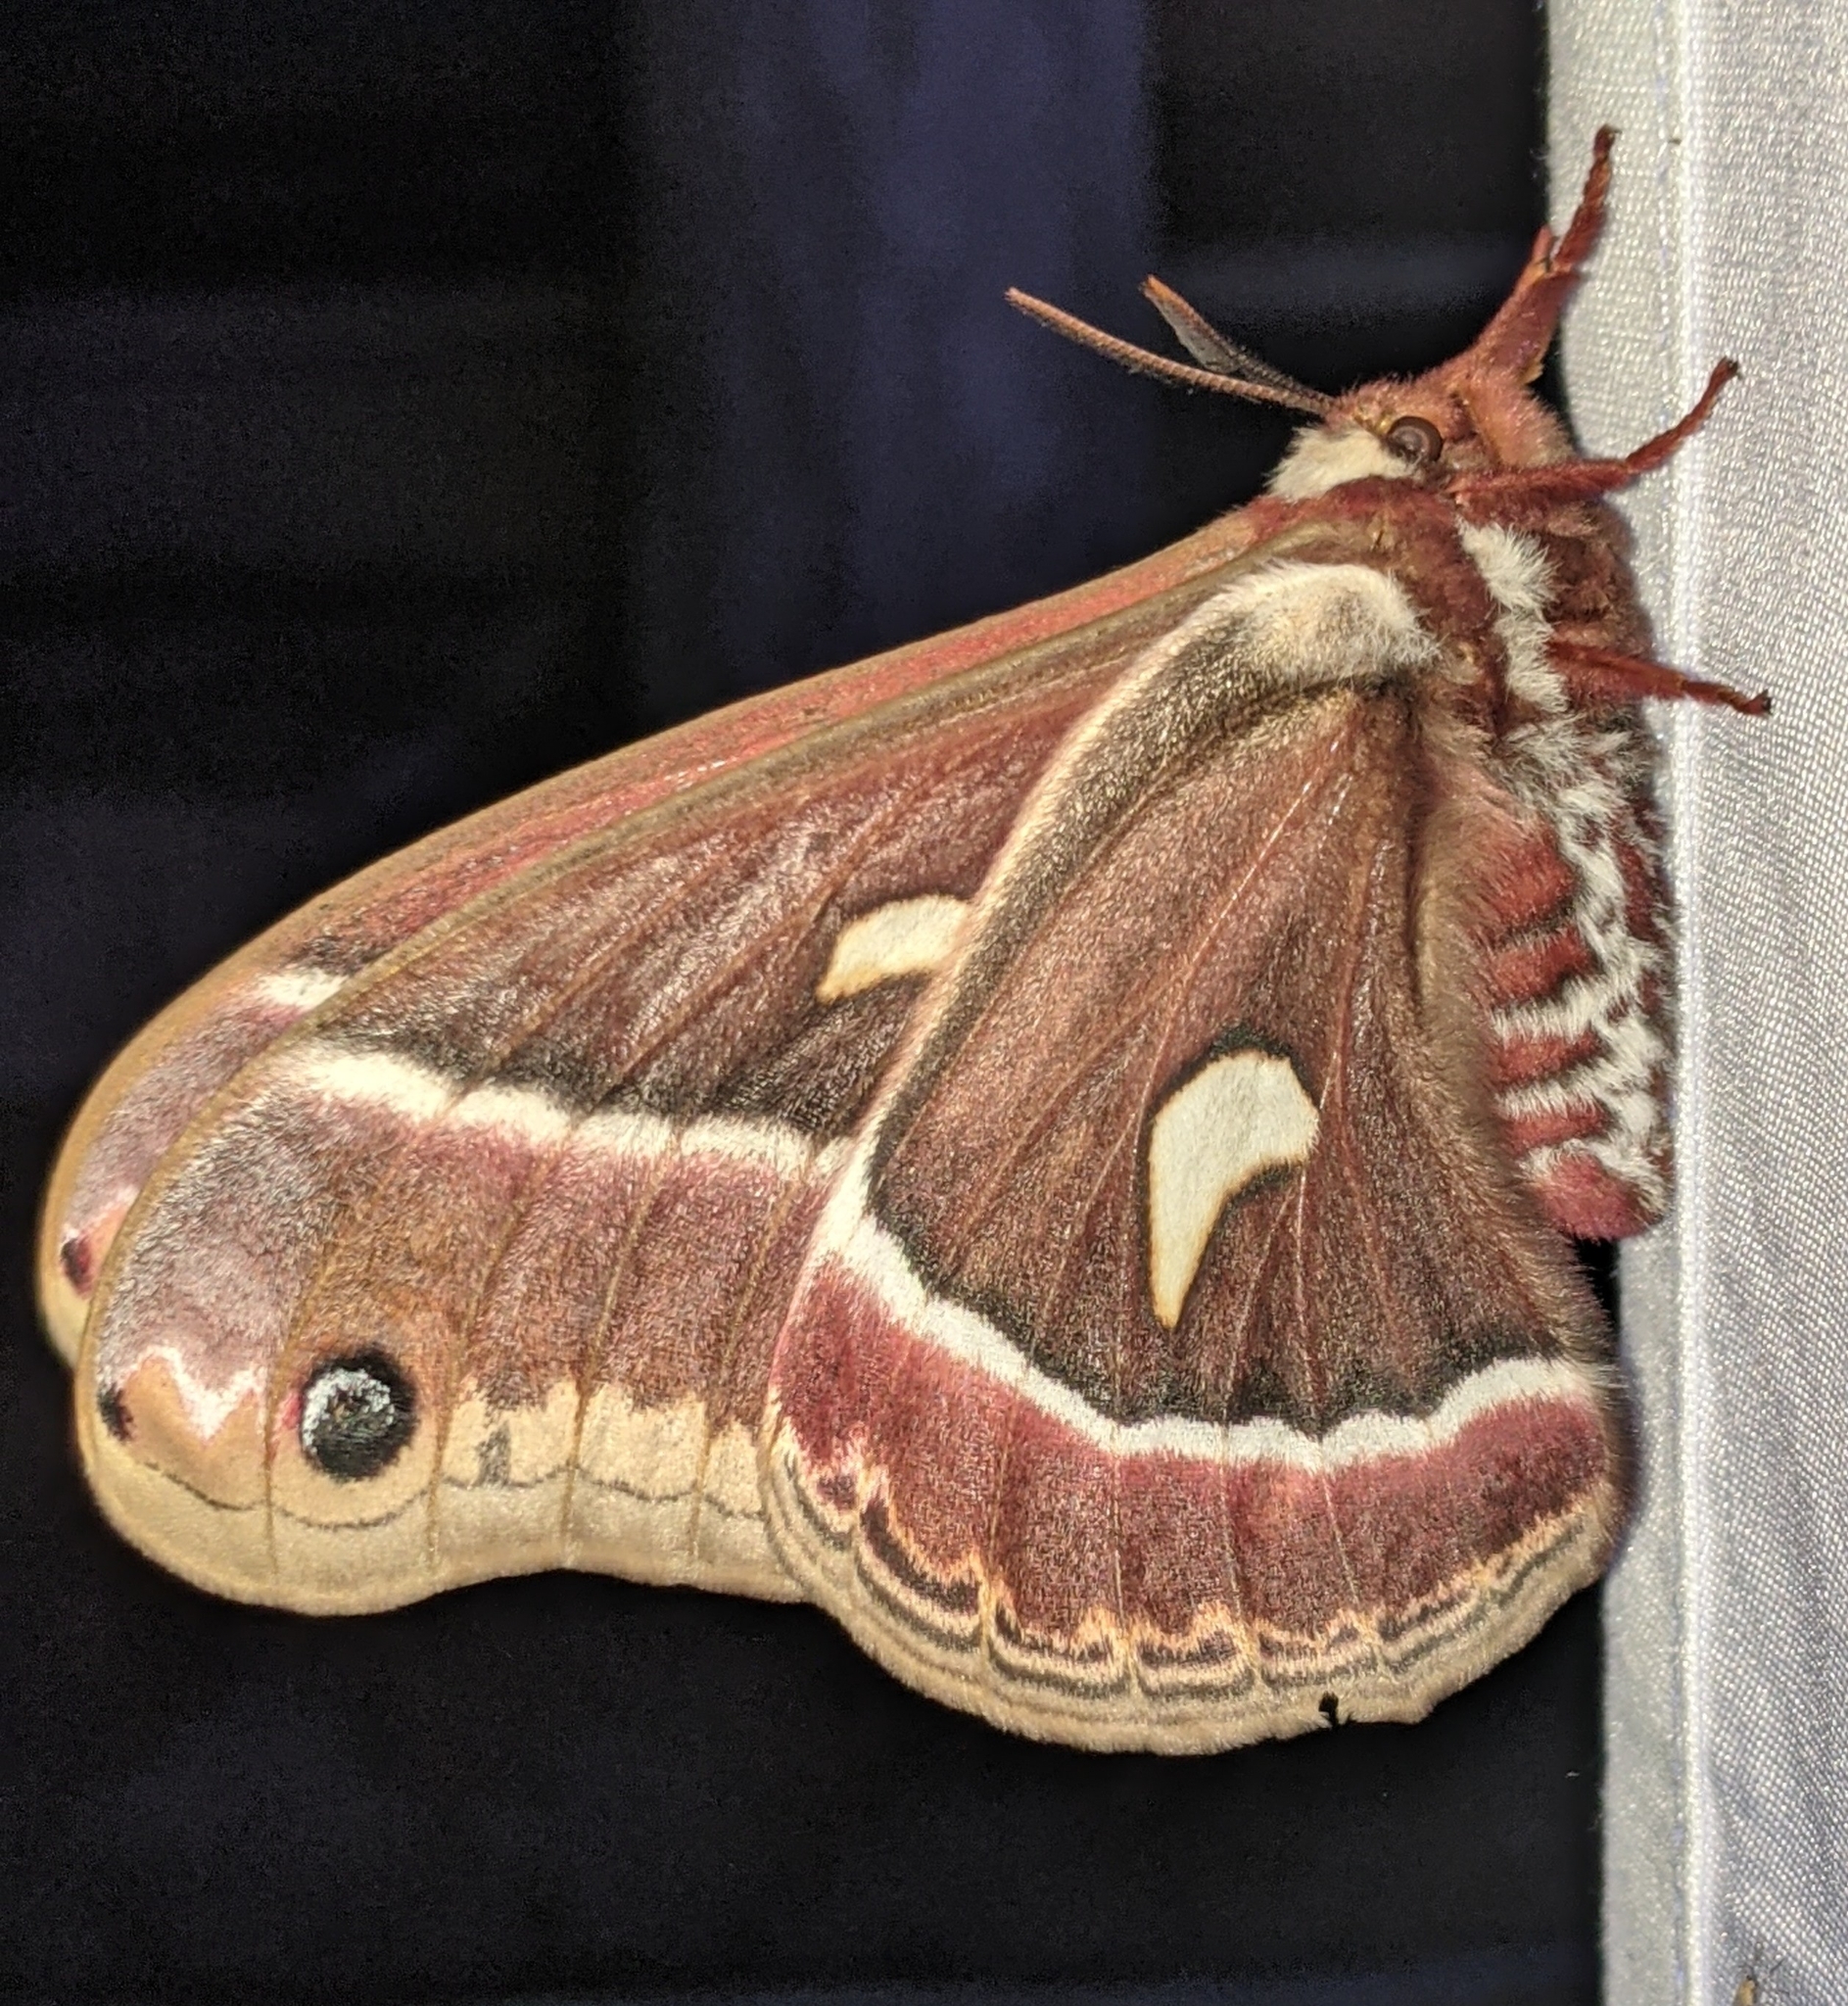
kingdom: Animalia
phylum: Arthropoda
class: Insecta
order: Lepidoptera
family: Saturniidae
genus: Hyalophora
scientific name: Hyalophora euryalus
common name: Ceanothus silkmoth
